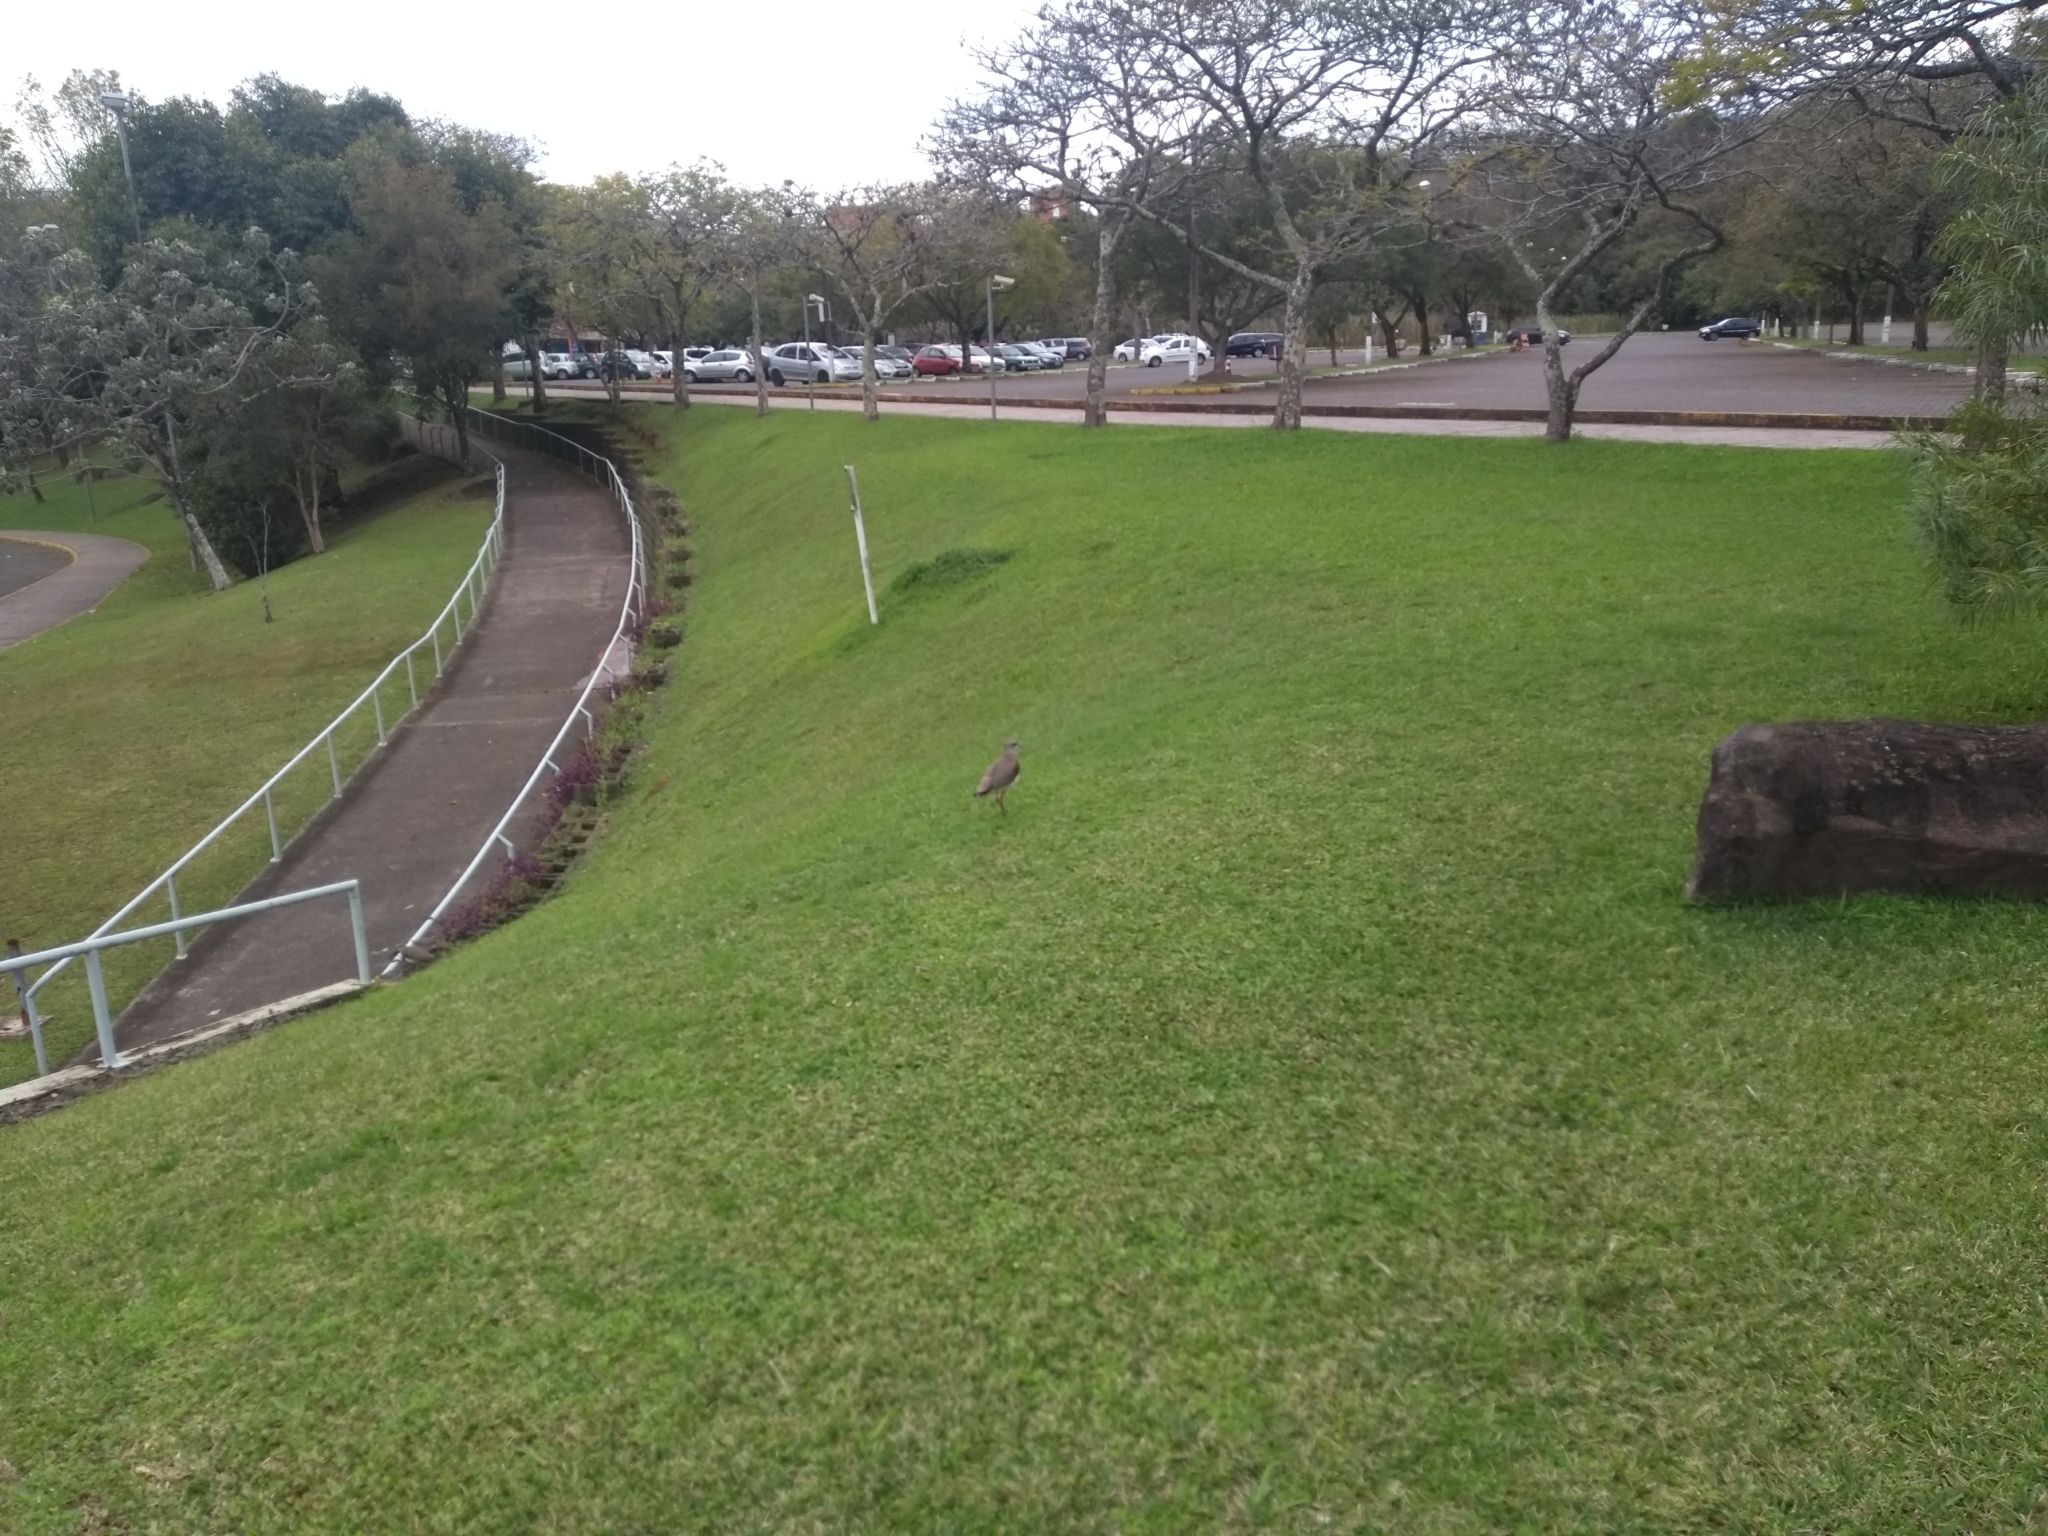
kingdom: Animalia
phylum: Chordata
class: Aves
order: Charadriiformes
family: Charadriidae
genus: Vanellus
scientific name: Vanellus chilensis
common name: Southern lapwing
